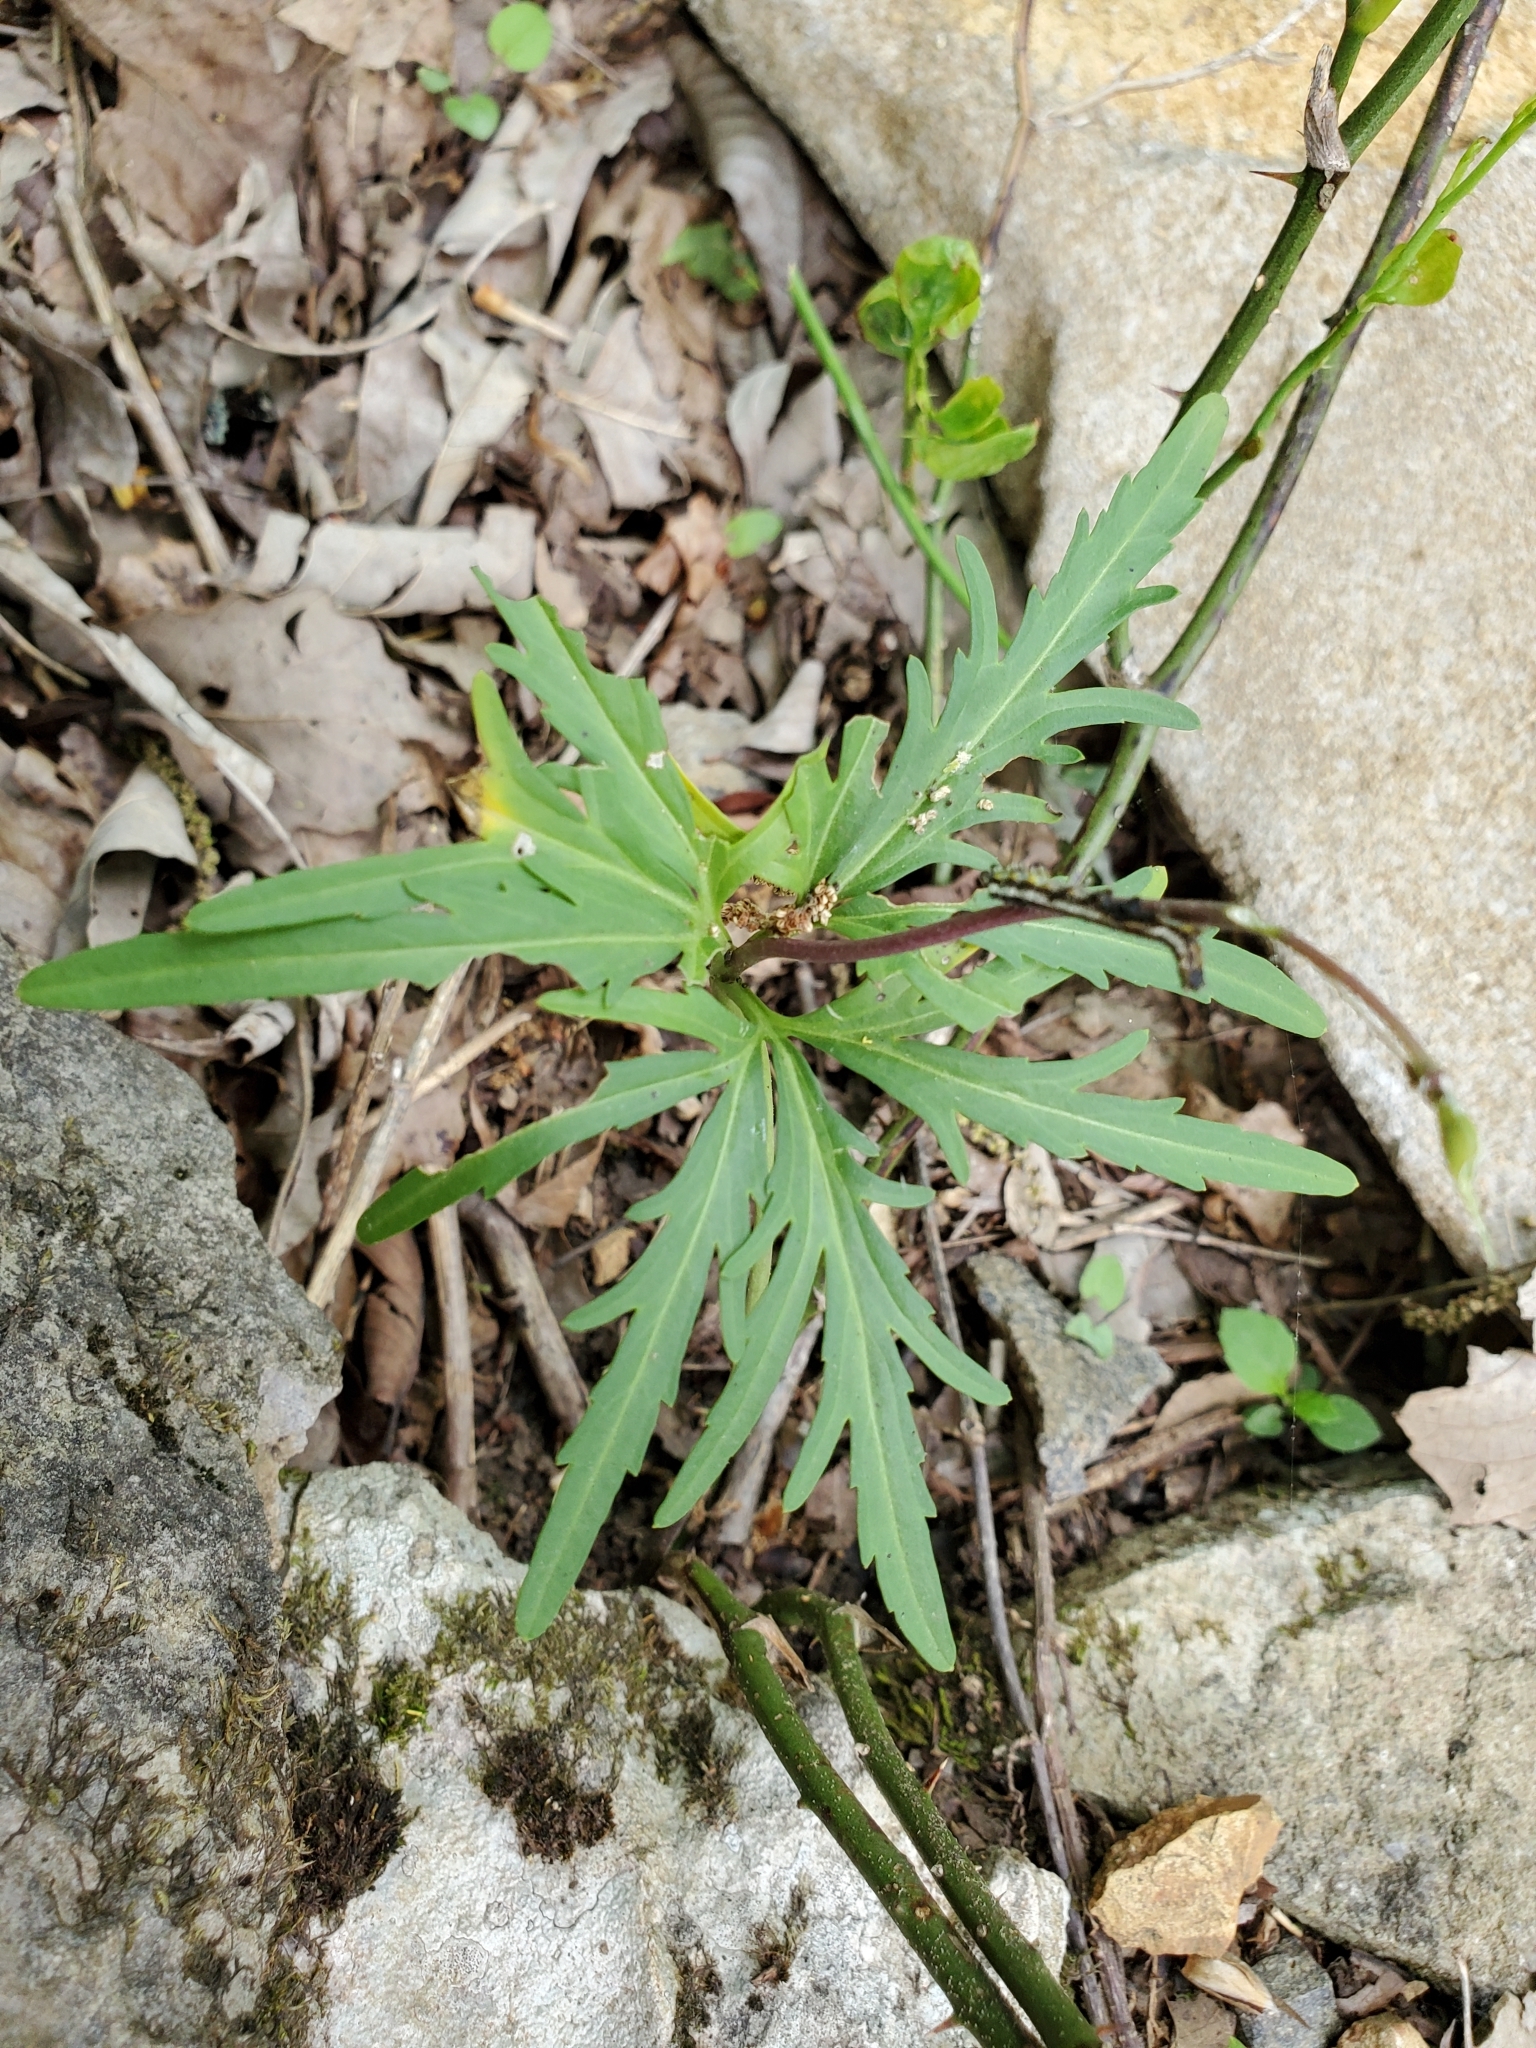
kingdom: Plantae
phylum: Tracheophyta
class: Magnoliopsida
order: Brassicales
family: Brassicaceae
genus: Cardamine
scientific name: Cardamine concatenata
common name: Cut-leaf toothcup
